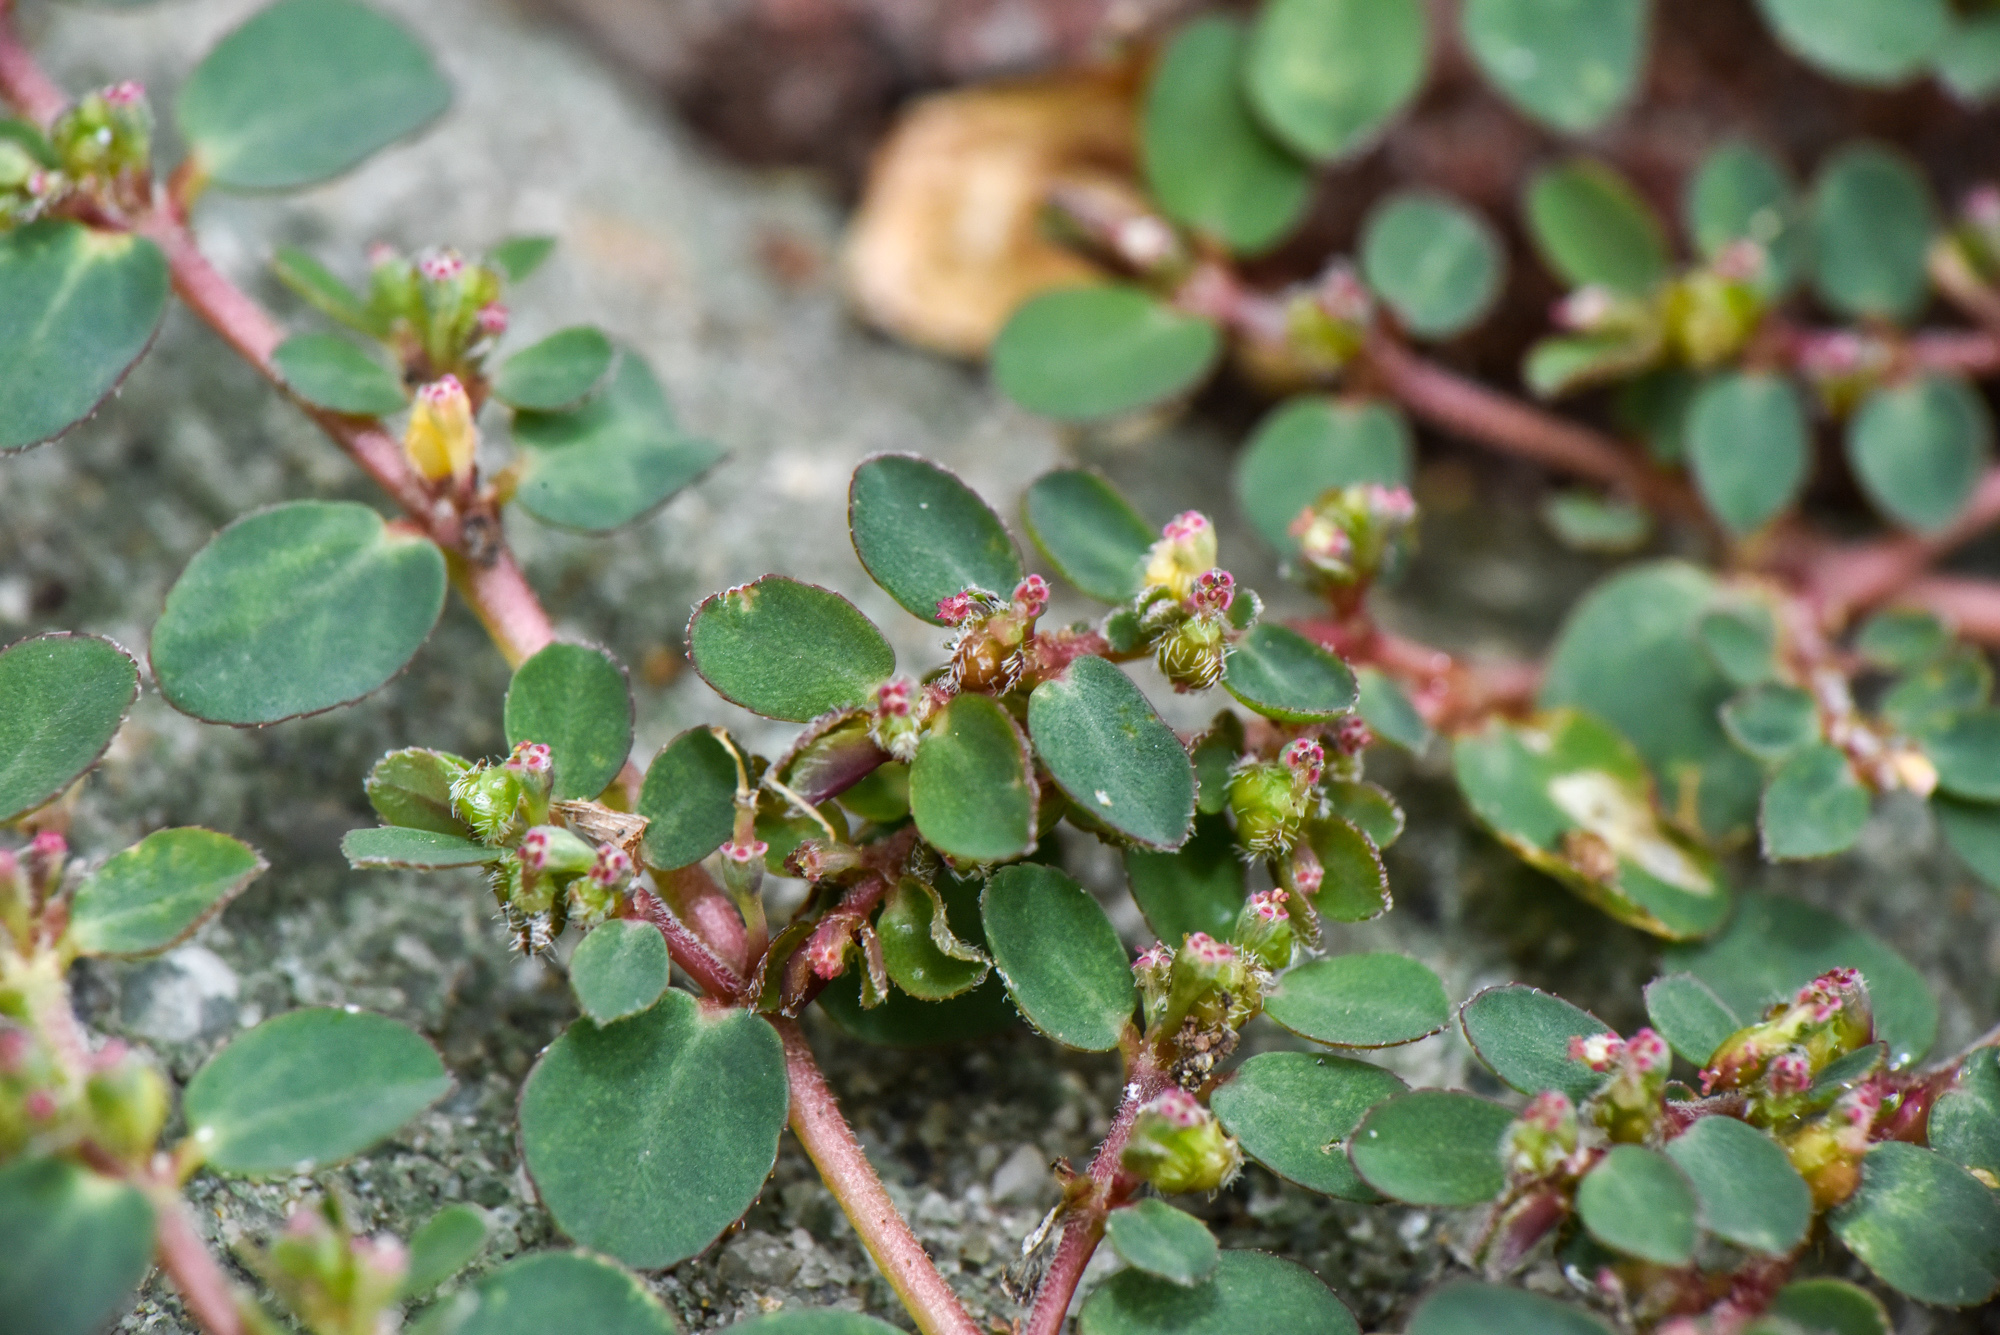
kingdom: Plantae
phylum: Tracheophyta
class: Magnoliopsida
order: Malpighiales
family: Euphorbiaceae
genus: Euphorbia
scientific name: Euphorbia prostrata
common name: Prostrate sandmat
